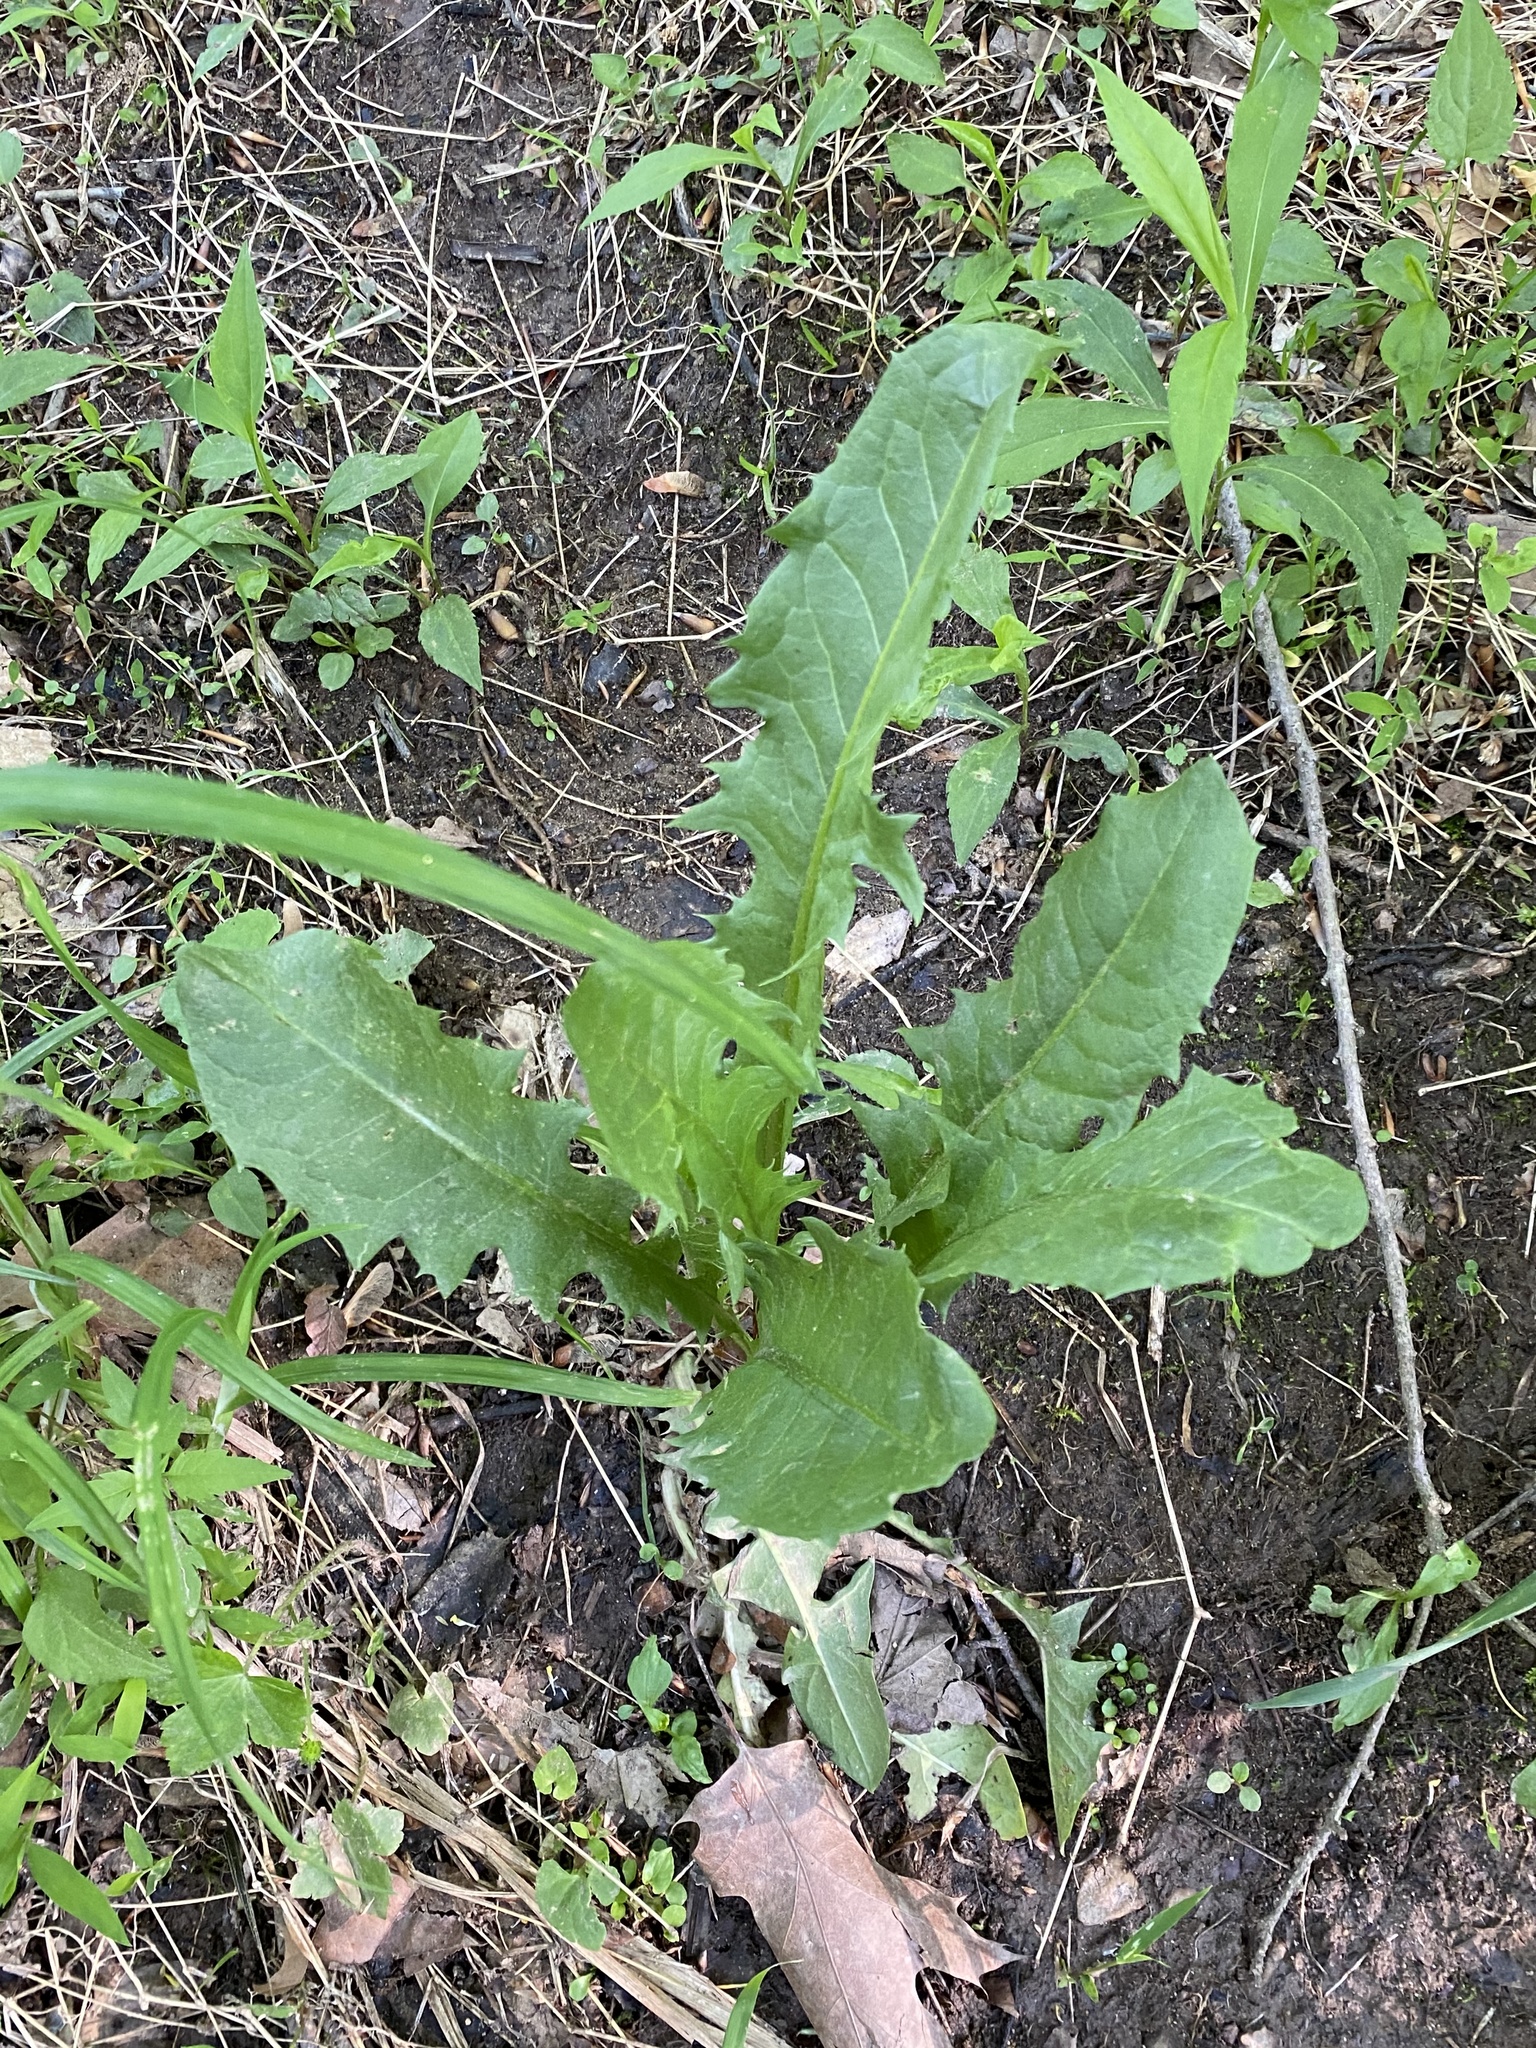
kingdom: Plantae
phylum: Tracheophyta
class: Magnoliopsida
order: Asterales
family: Asteraceae
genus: Taraxacum
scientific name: Taraxacum officinale
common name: Common dandelion
